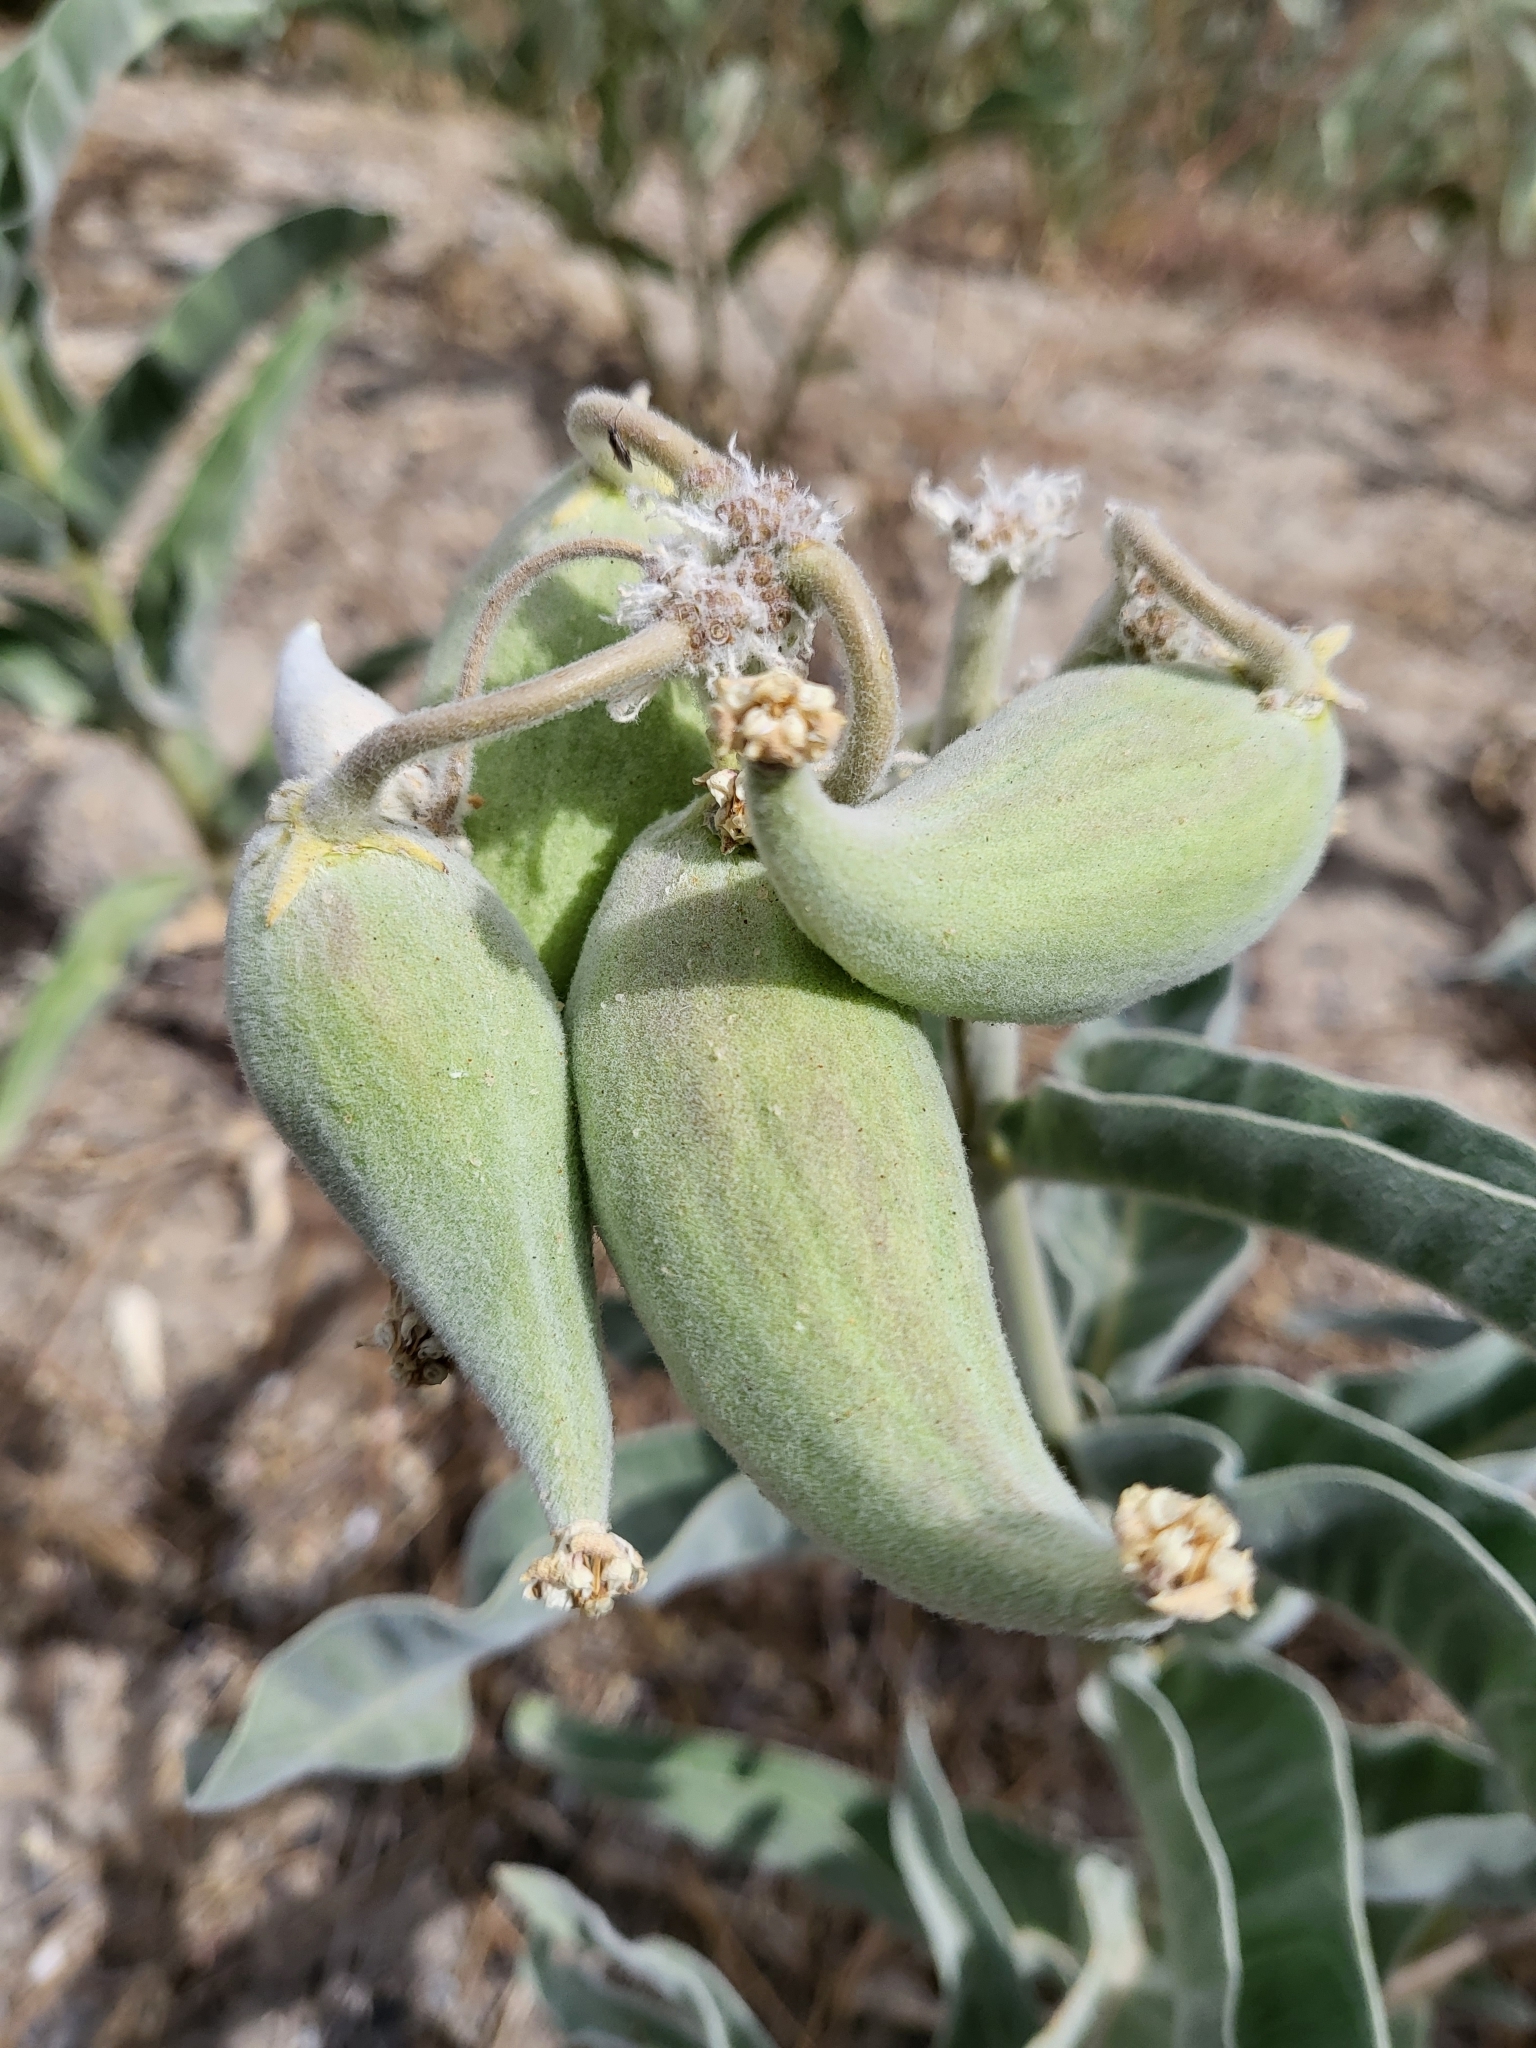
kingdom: Plantae
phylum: Tracheophyta
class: Magnoliopsida
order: Gentianales
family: Apocynaceae
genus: Asclepias
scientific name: Asclepias eriocarpa
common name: Indian milkweed
